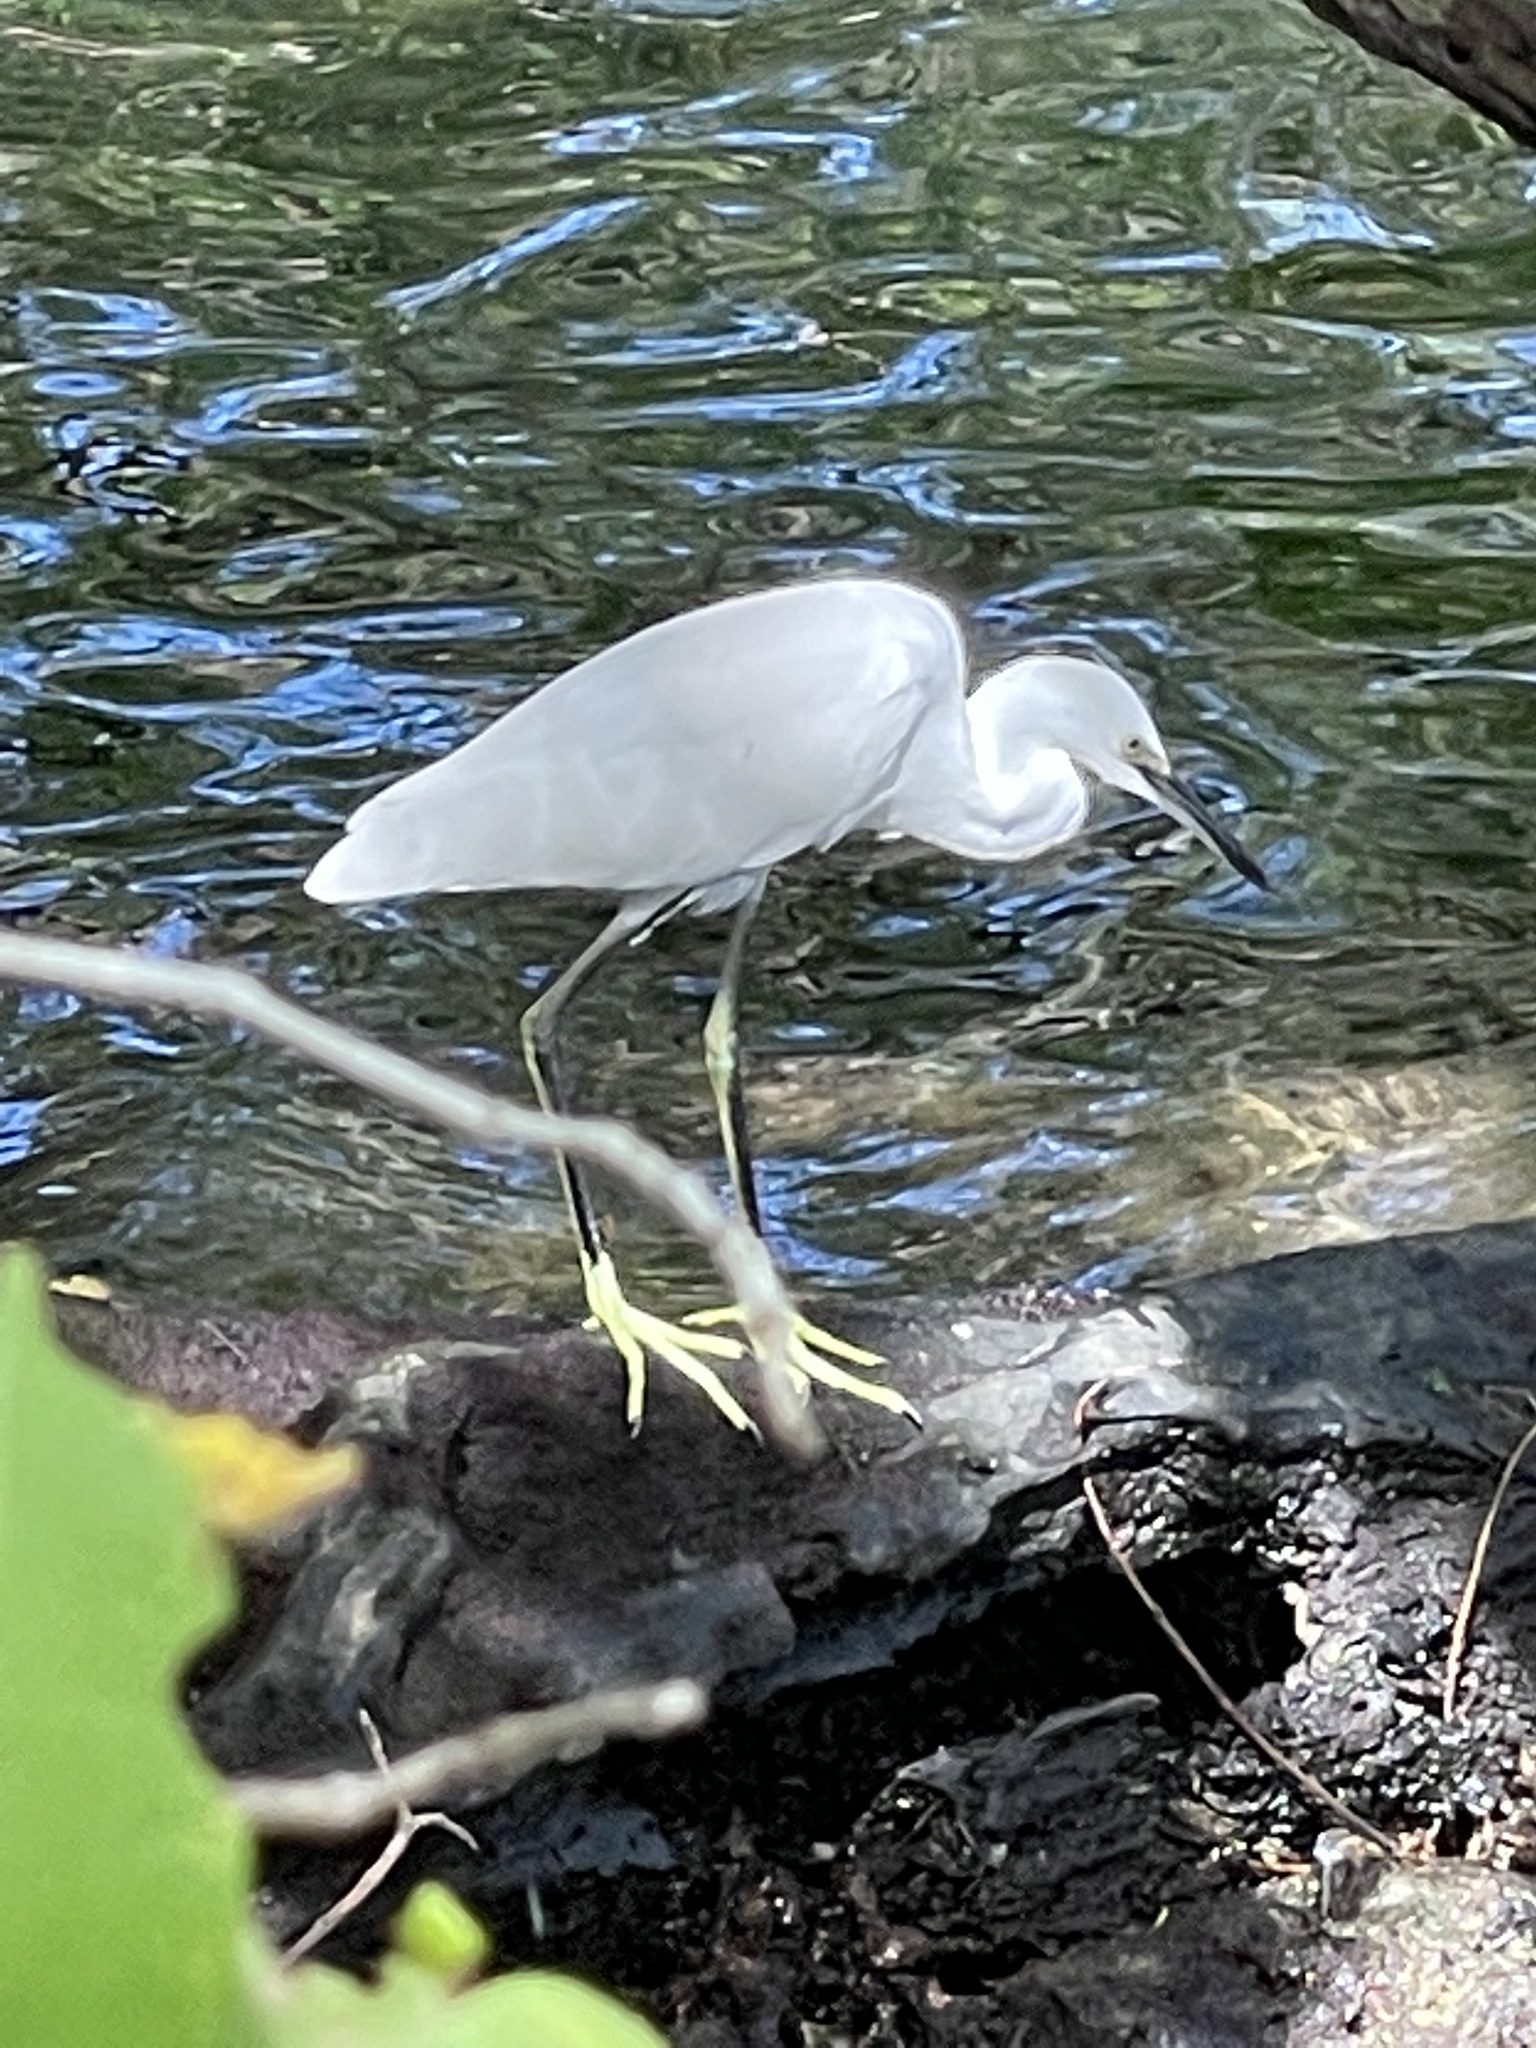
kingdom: Animalia
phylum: Chordata
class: Aves
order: Pelecaniformes
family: Ardeidae
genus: Egretta
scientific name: Egretta thula
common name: Snowy egret
